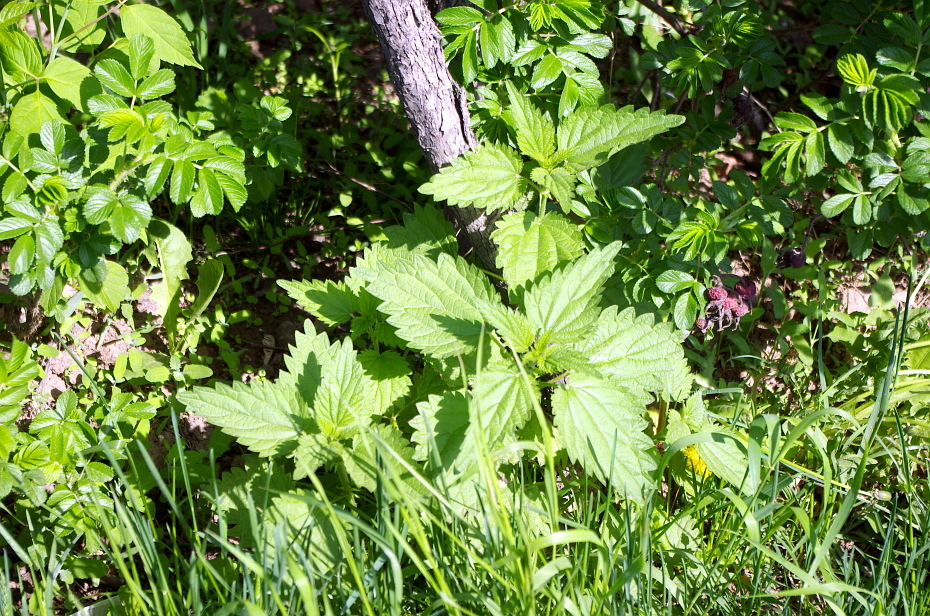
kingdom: Plantae
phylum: Tracheophyta
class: Magnoliopsida
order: Rosales
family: Urticaceae
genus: Urtica
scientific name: Urtica dioica
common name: Common nettle
